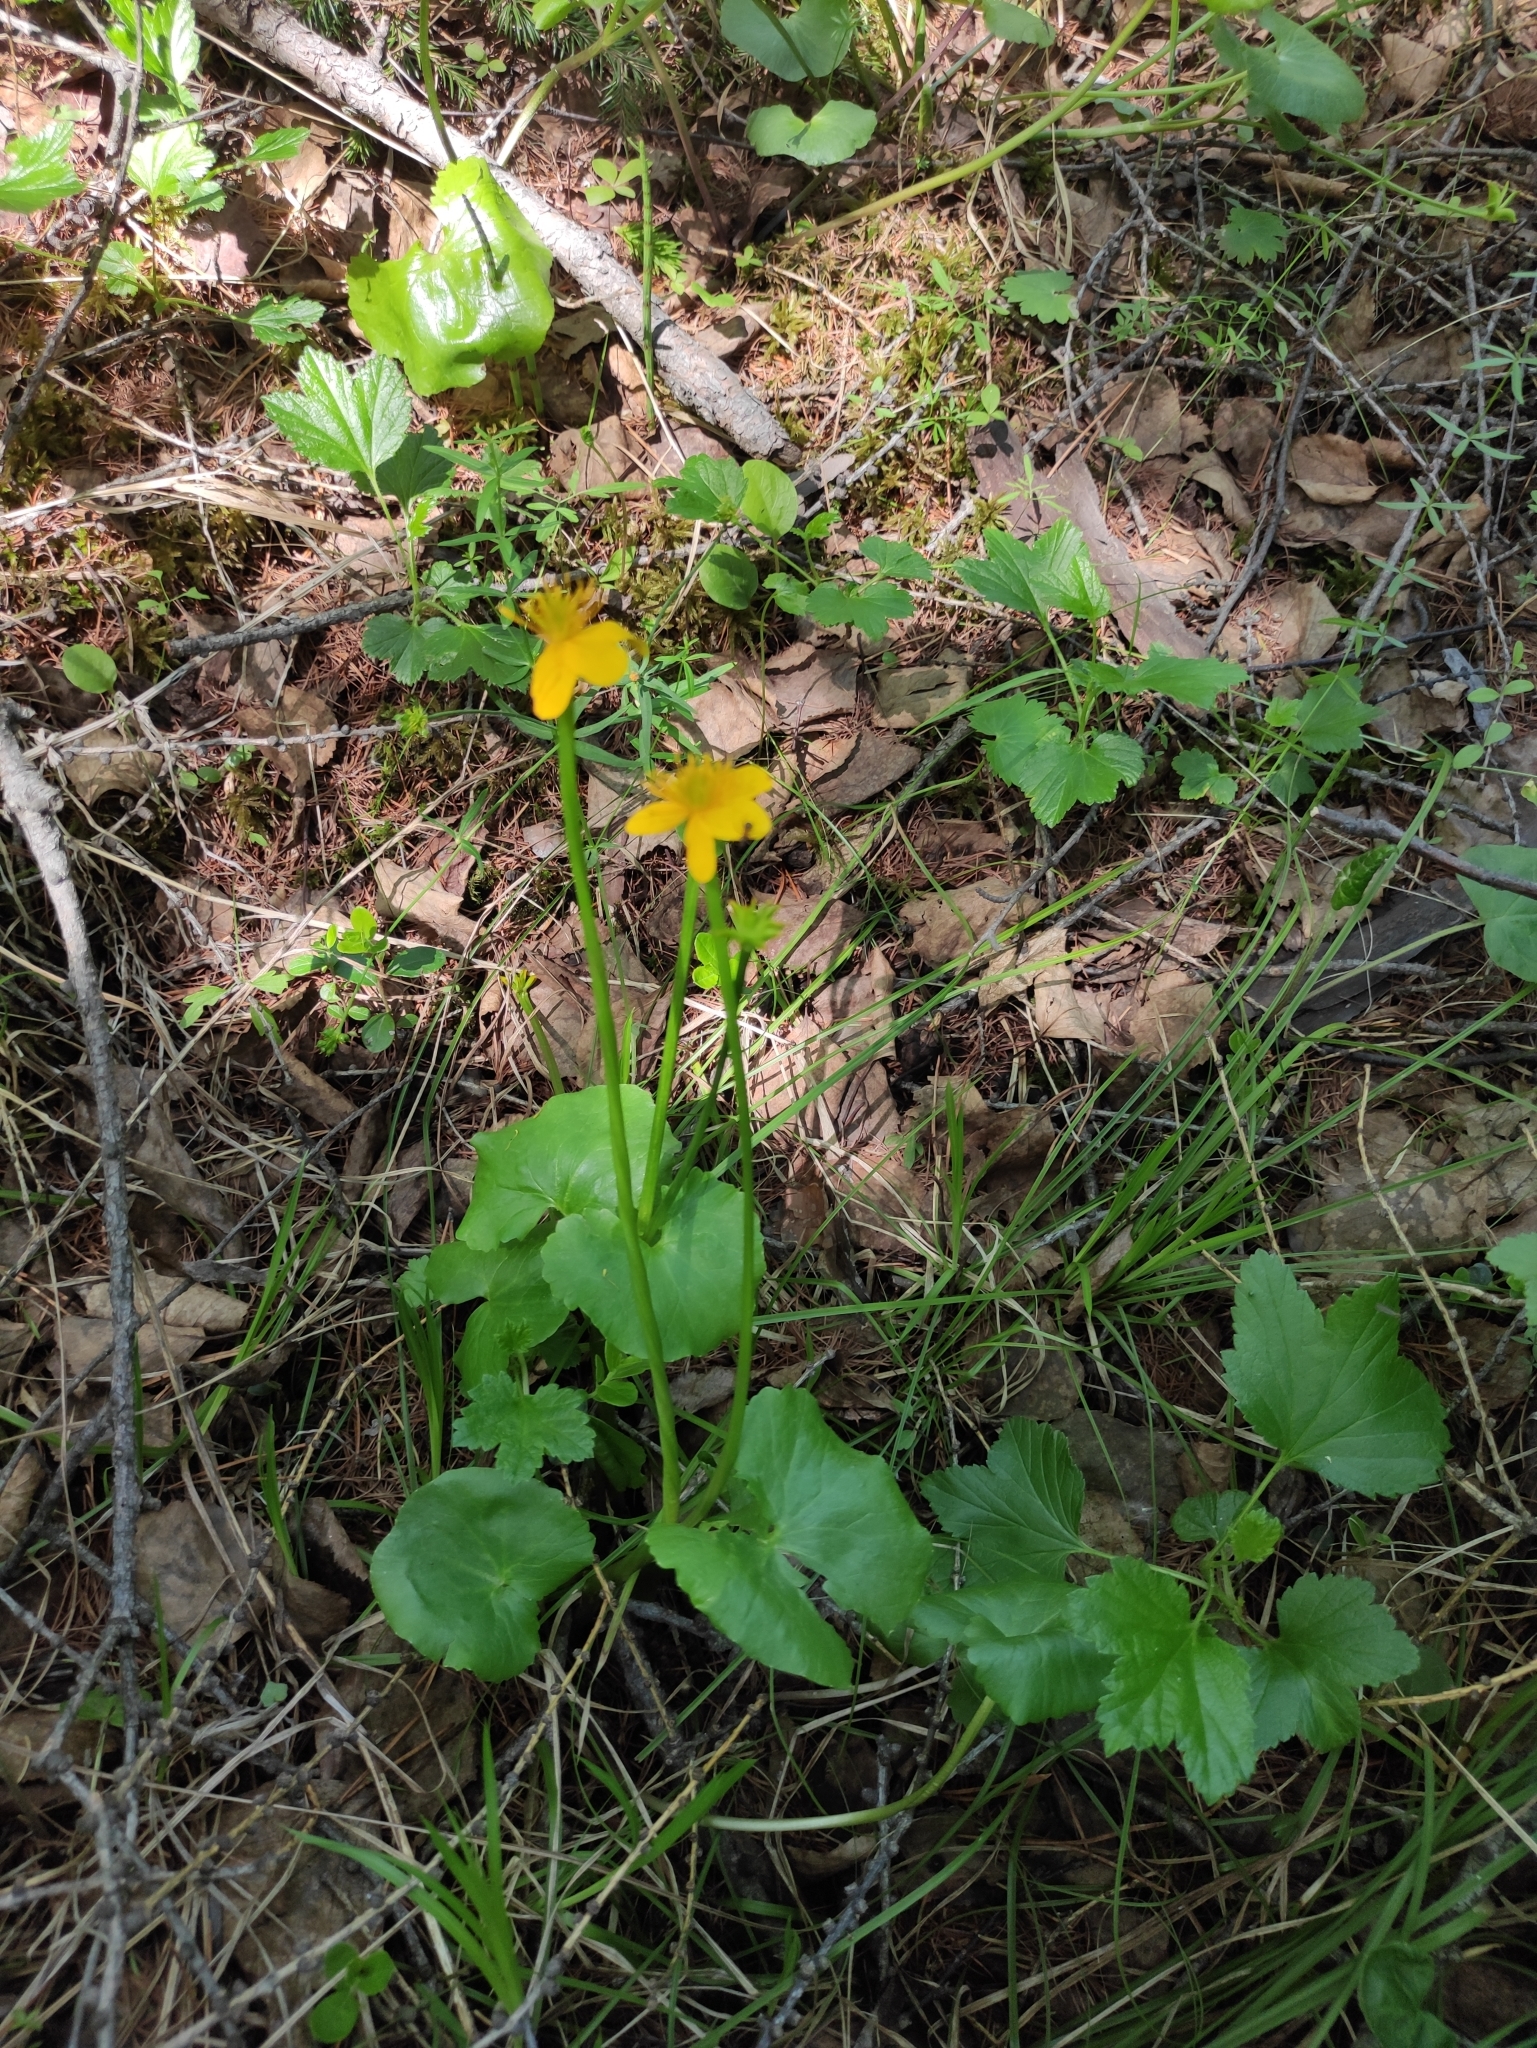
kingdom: Plantae
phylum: Tracheophyta
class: Magnoliopsida
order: Ranunculales
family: Ranunculaceae
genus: Caltha
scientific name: Caltha palustris
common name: Marsh marigold
